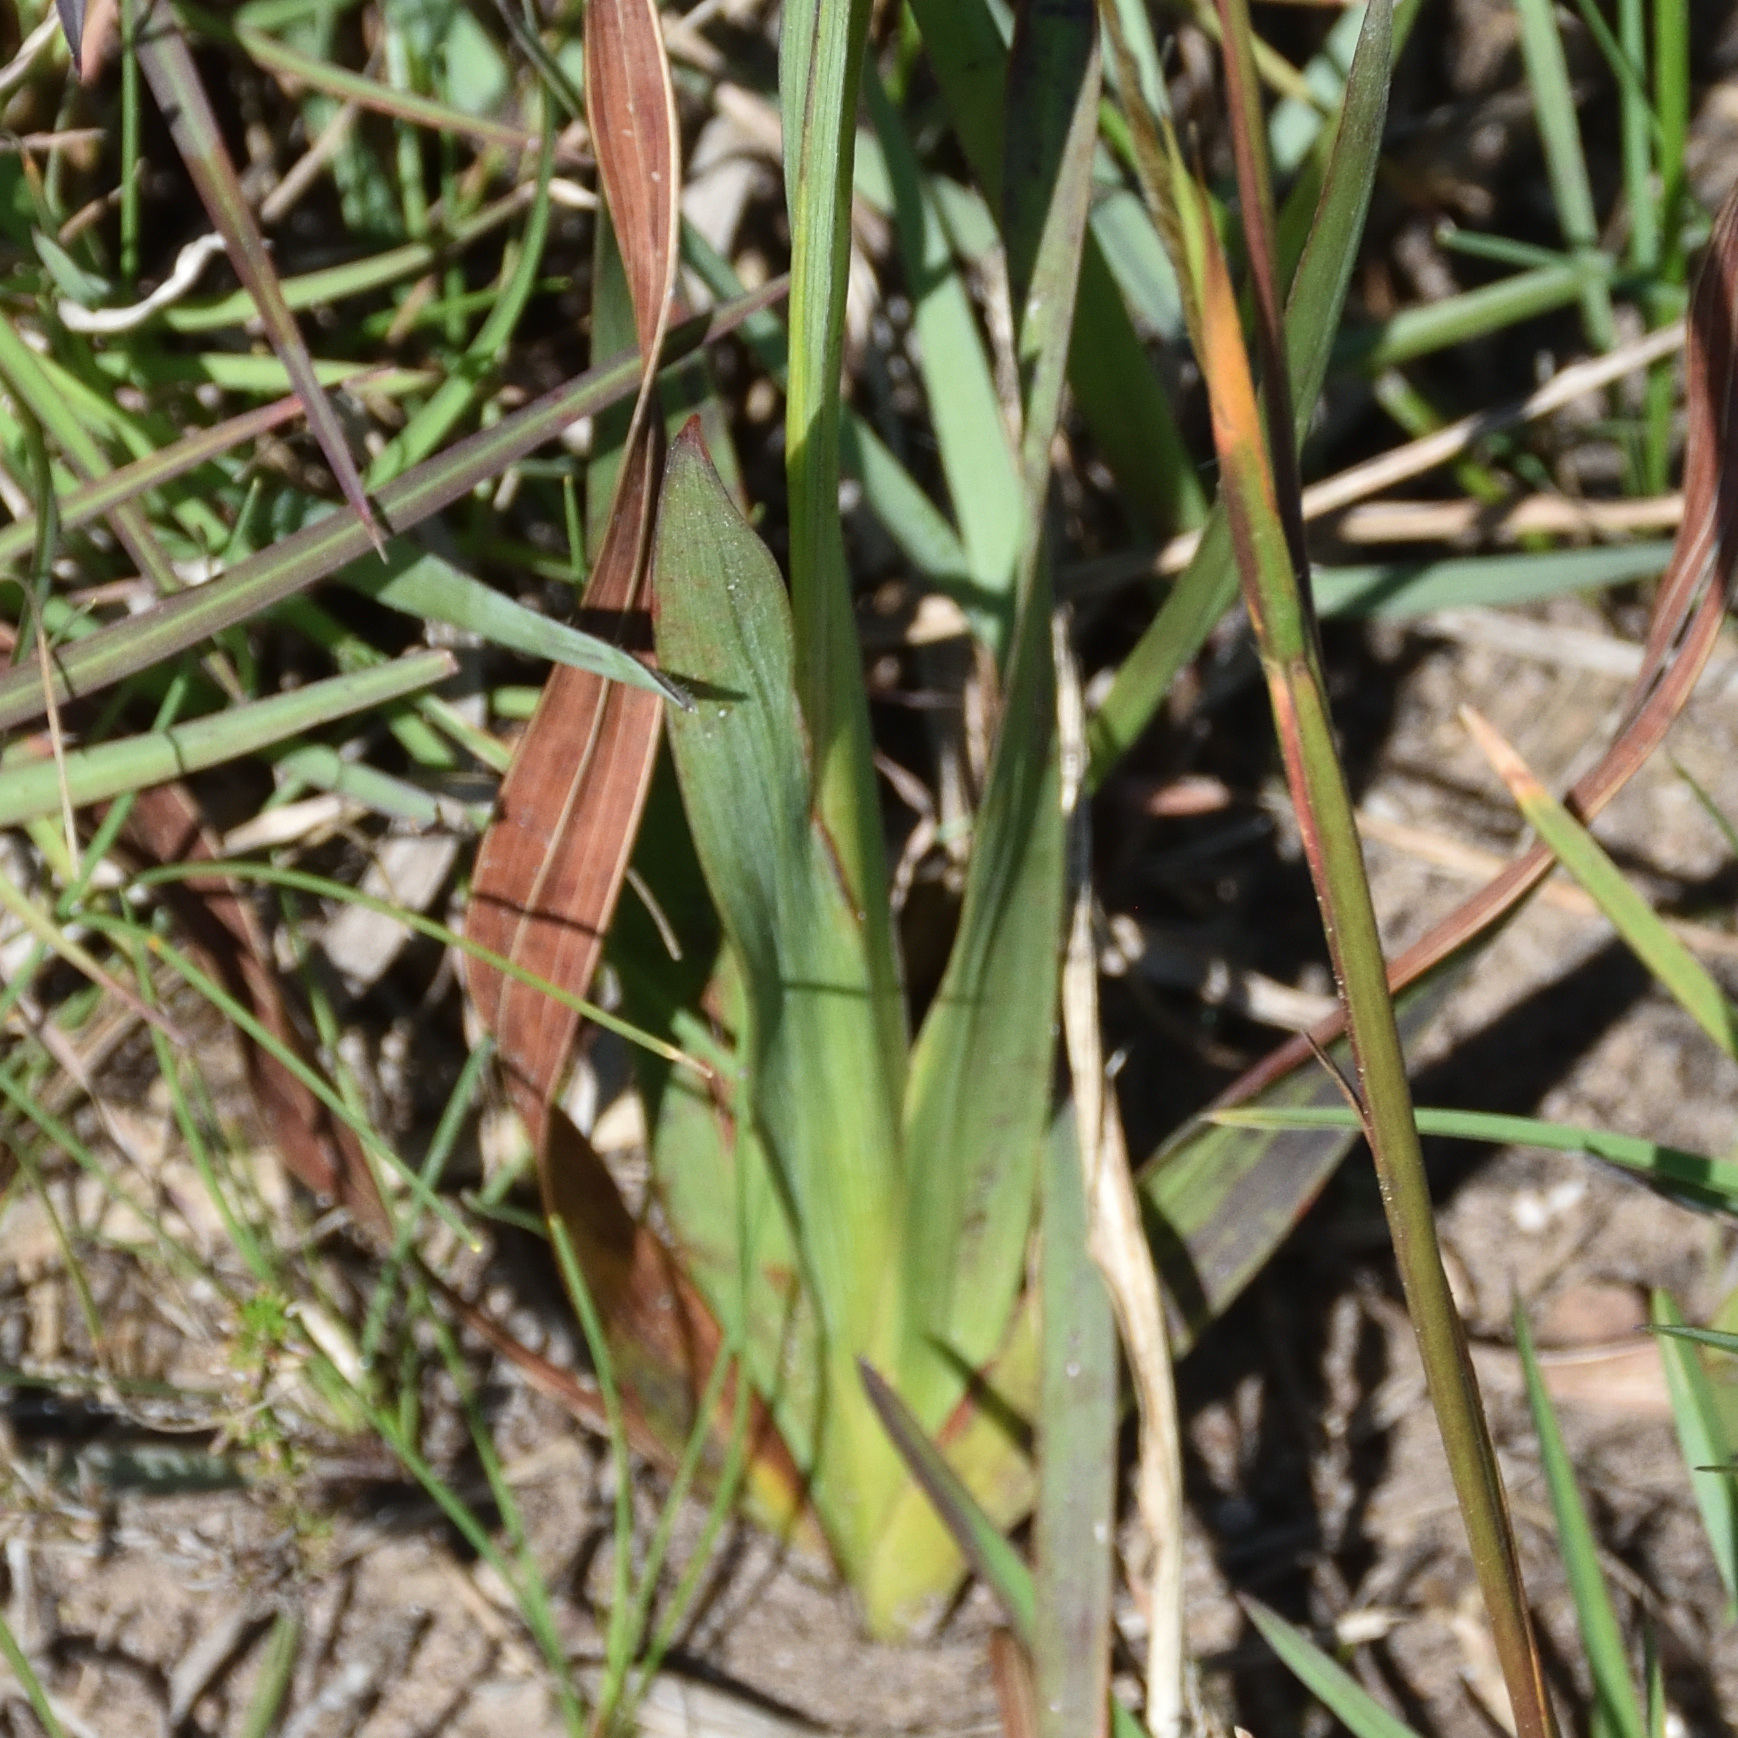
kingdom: Plantae
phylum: Tracheophyta
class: Liliopsida
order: Asparagales
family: Iridaceae
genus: Tritonia
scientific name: Tritonia gladiolaris
